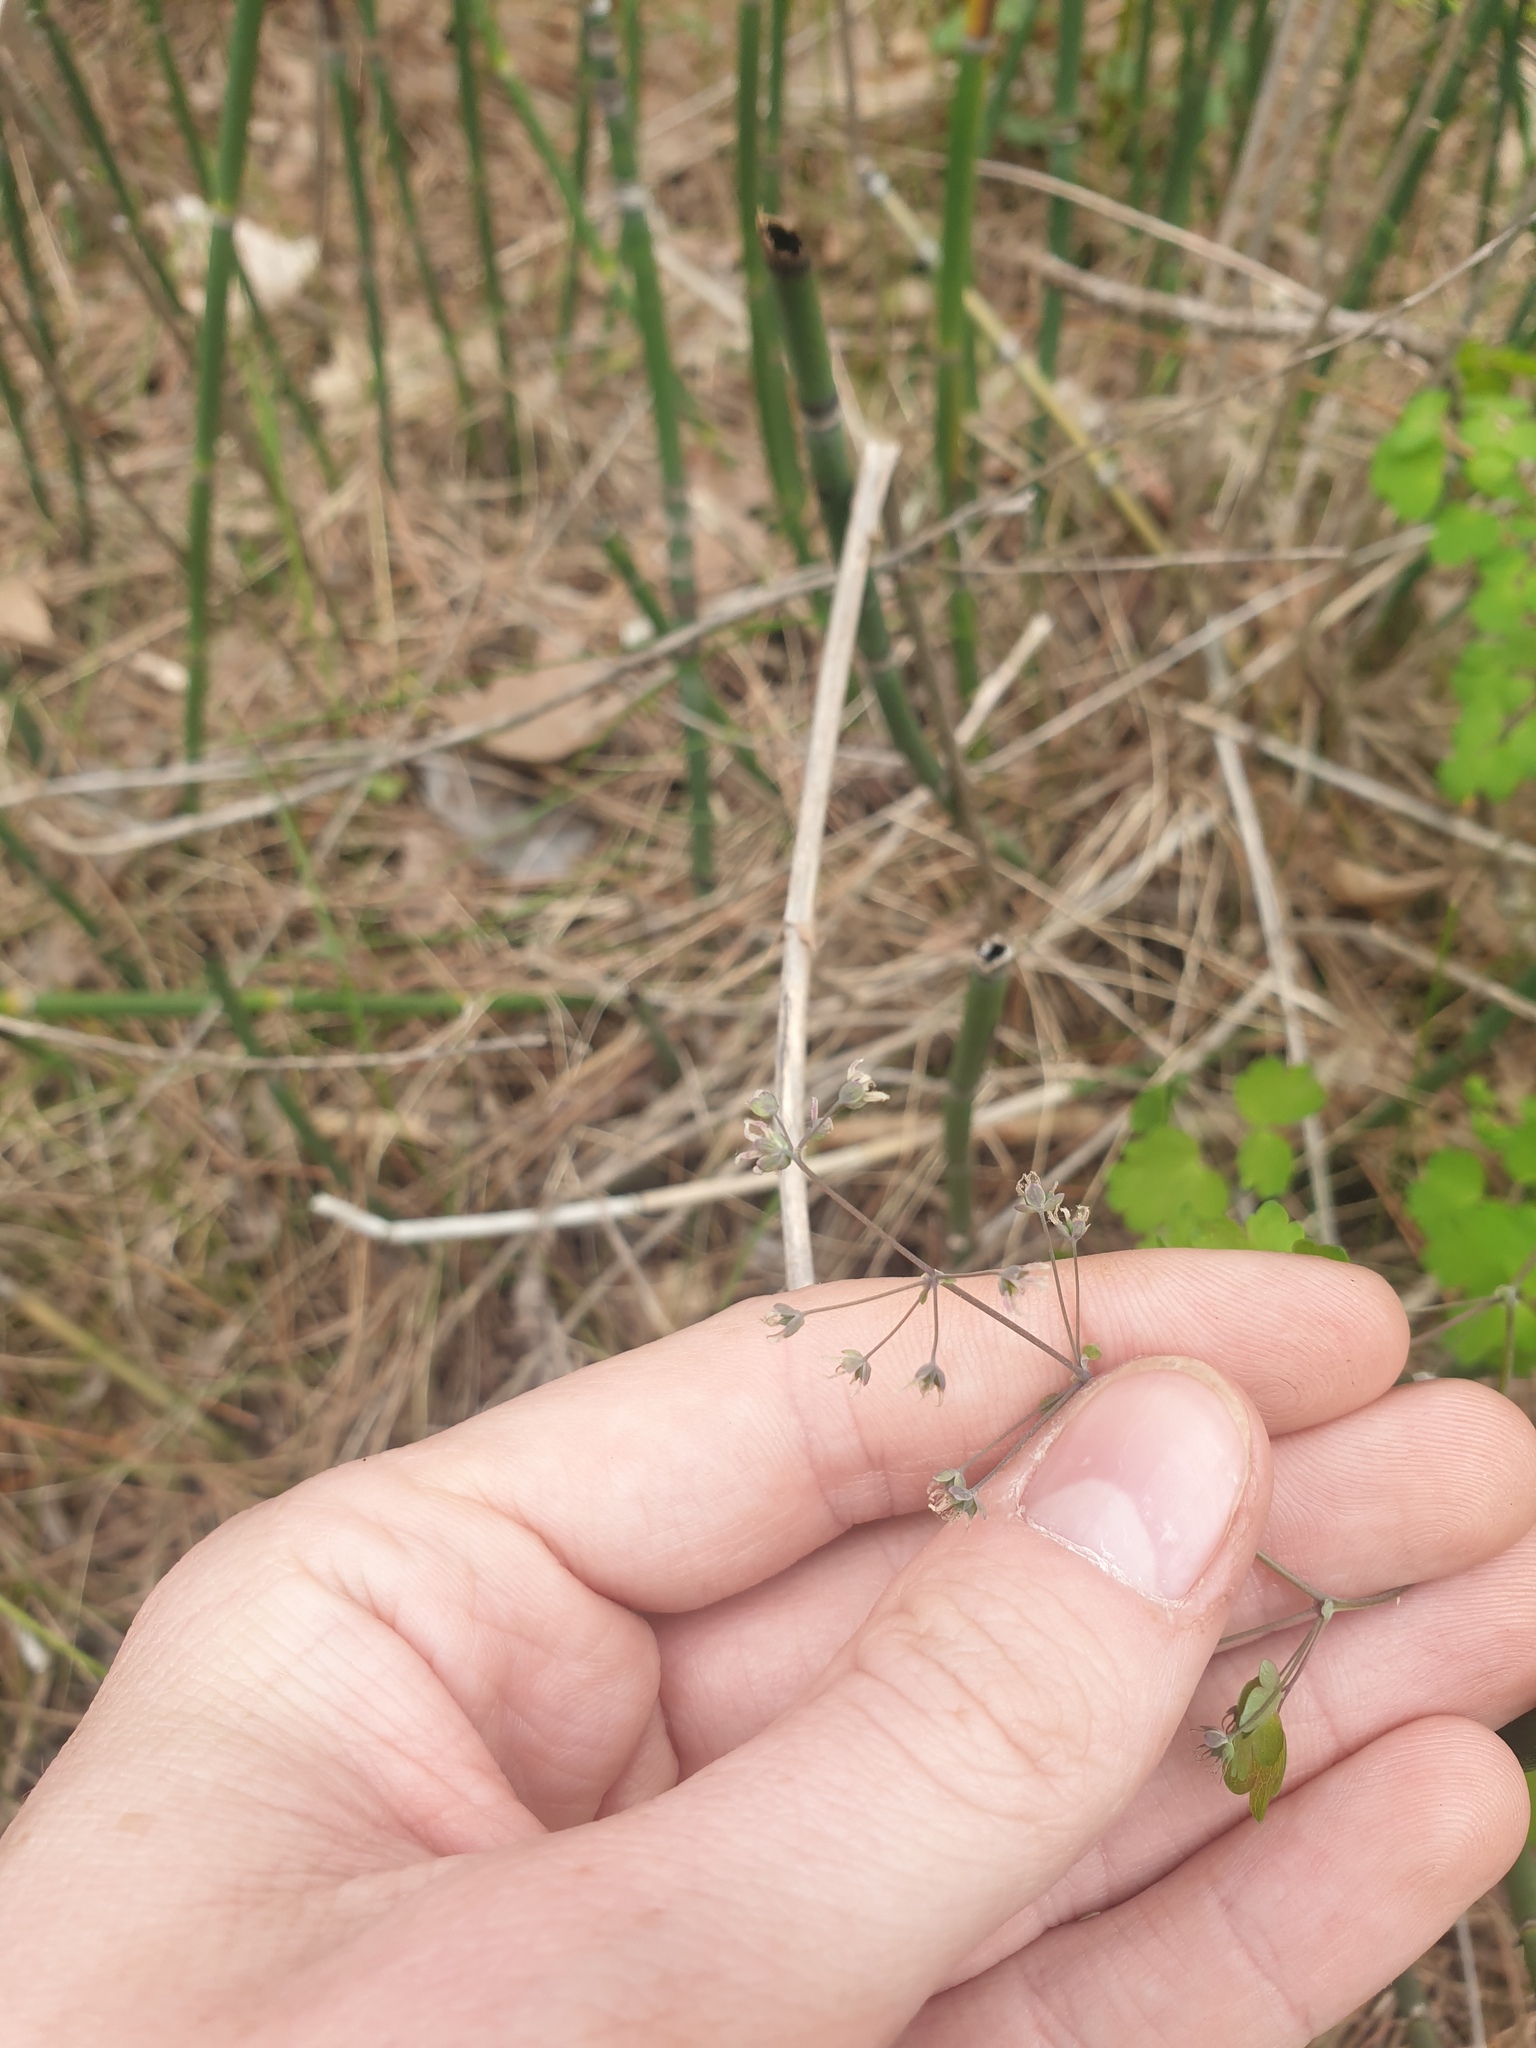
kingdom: Plantae
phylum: Tracheophyta
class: Magnoliopsida
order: Ranunculales
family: Ranunculaceae
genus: Thalictrum
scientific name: Thalictrum dioicum
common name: Early meadow-rue
